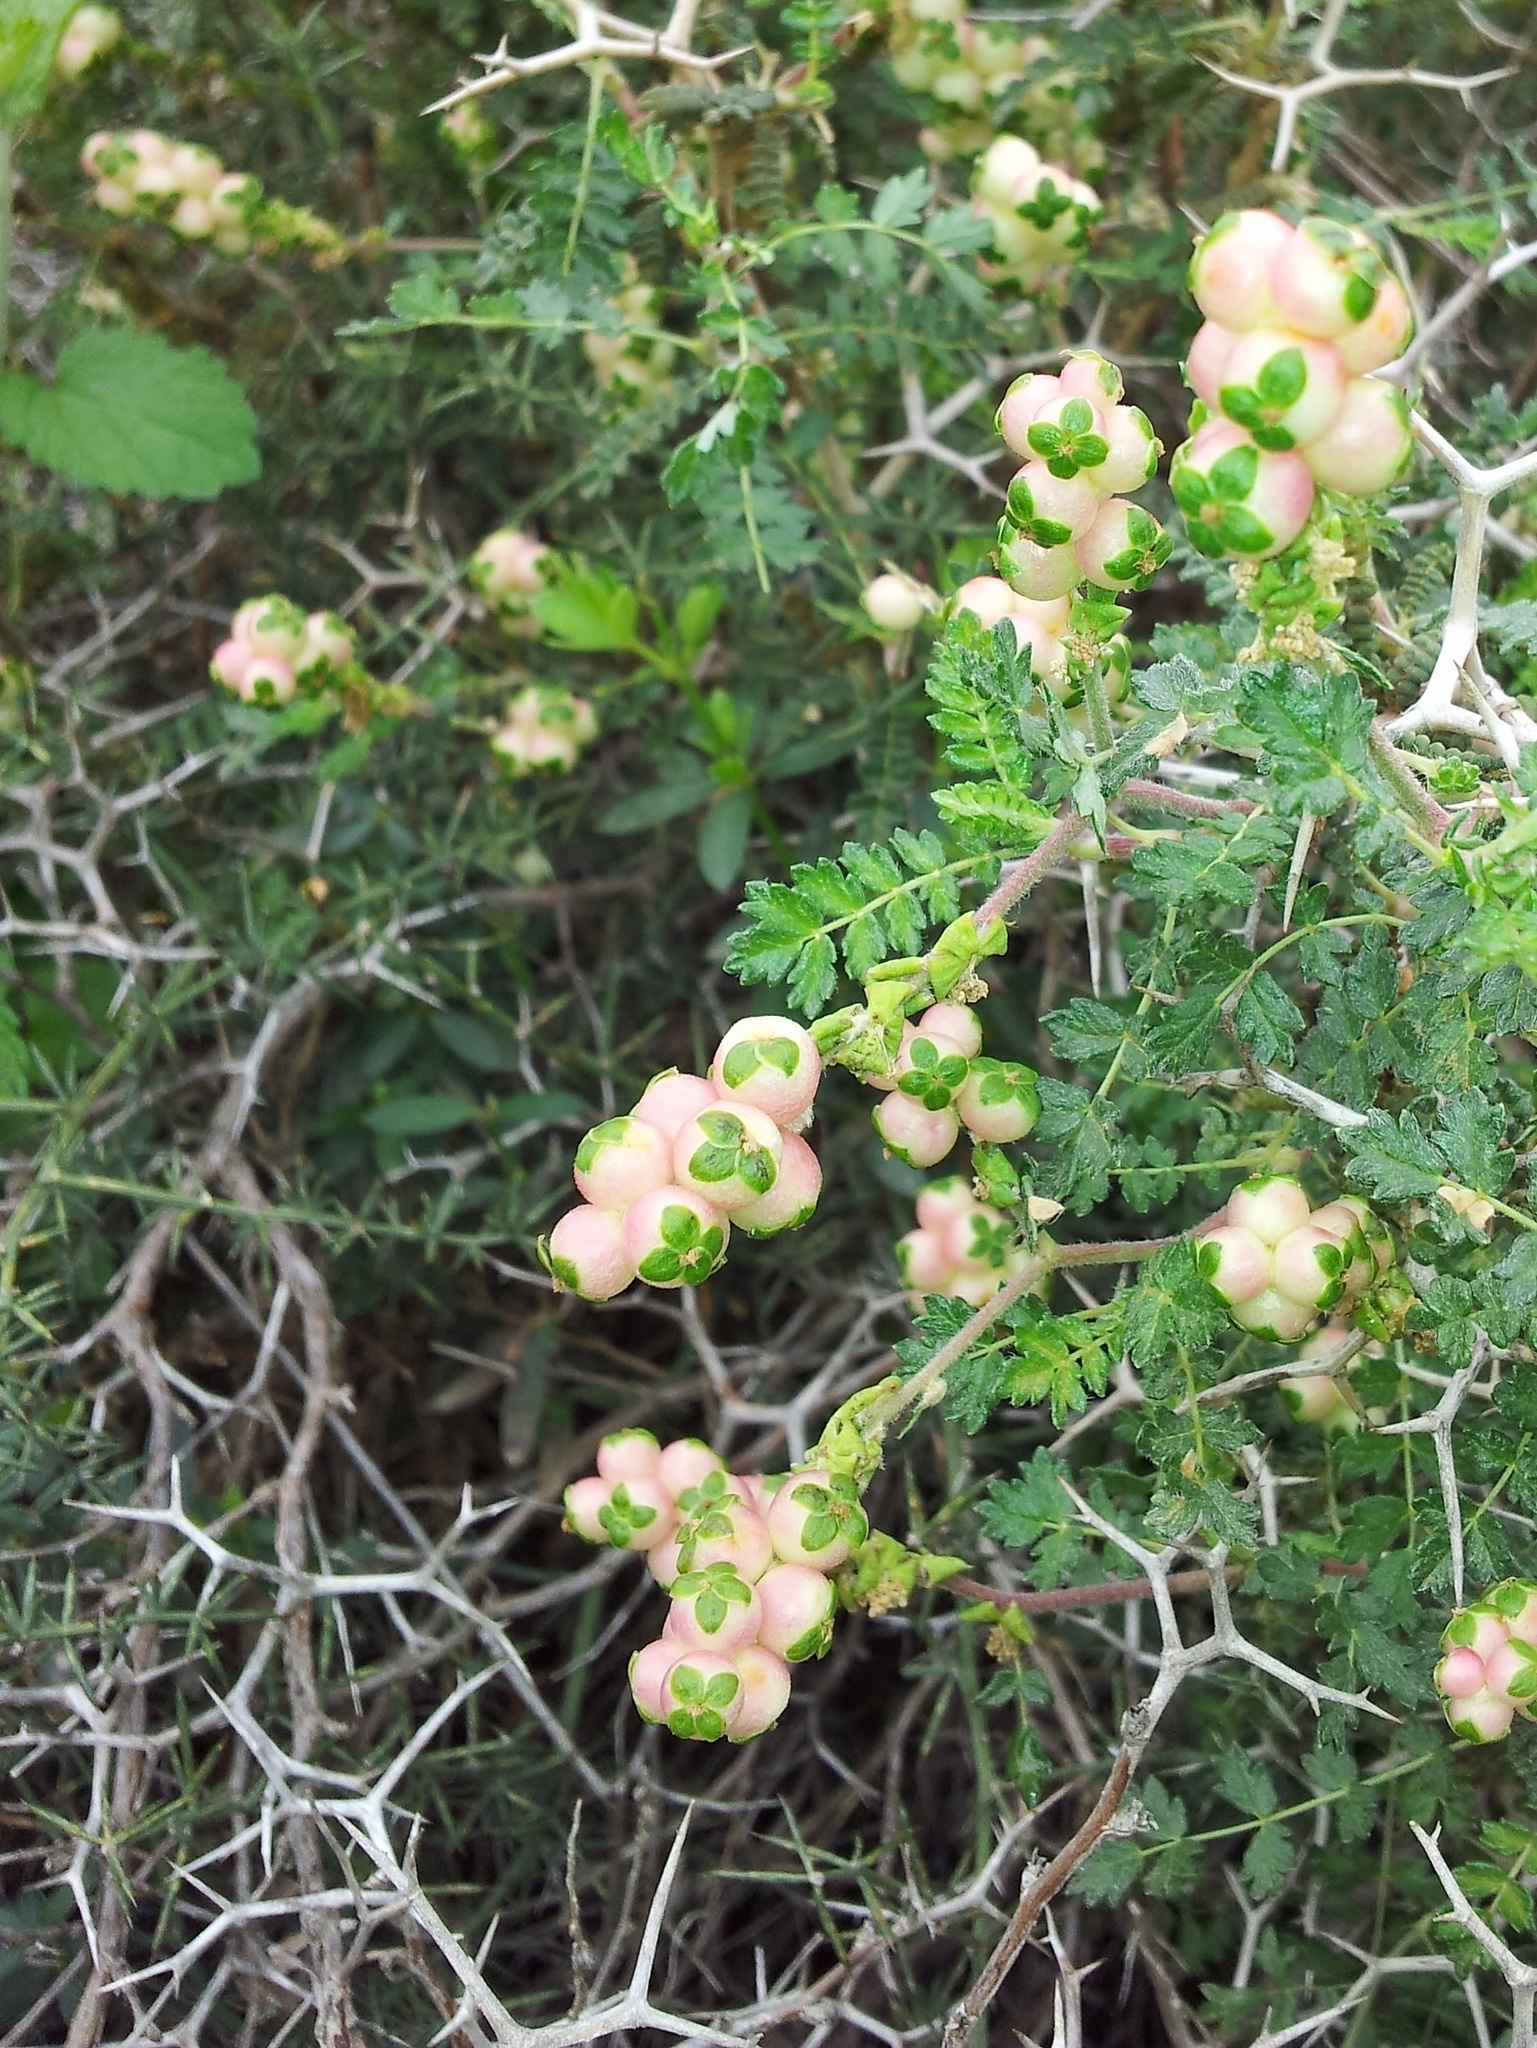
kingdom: Plantae
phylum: Tracheophyta
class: Magnoliopsida
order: Rosales
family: Rosaceae
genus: Sarcopoterium
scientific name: Sarcopoterium spinosum
